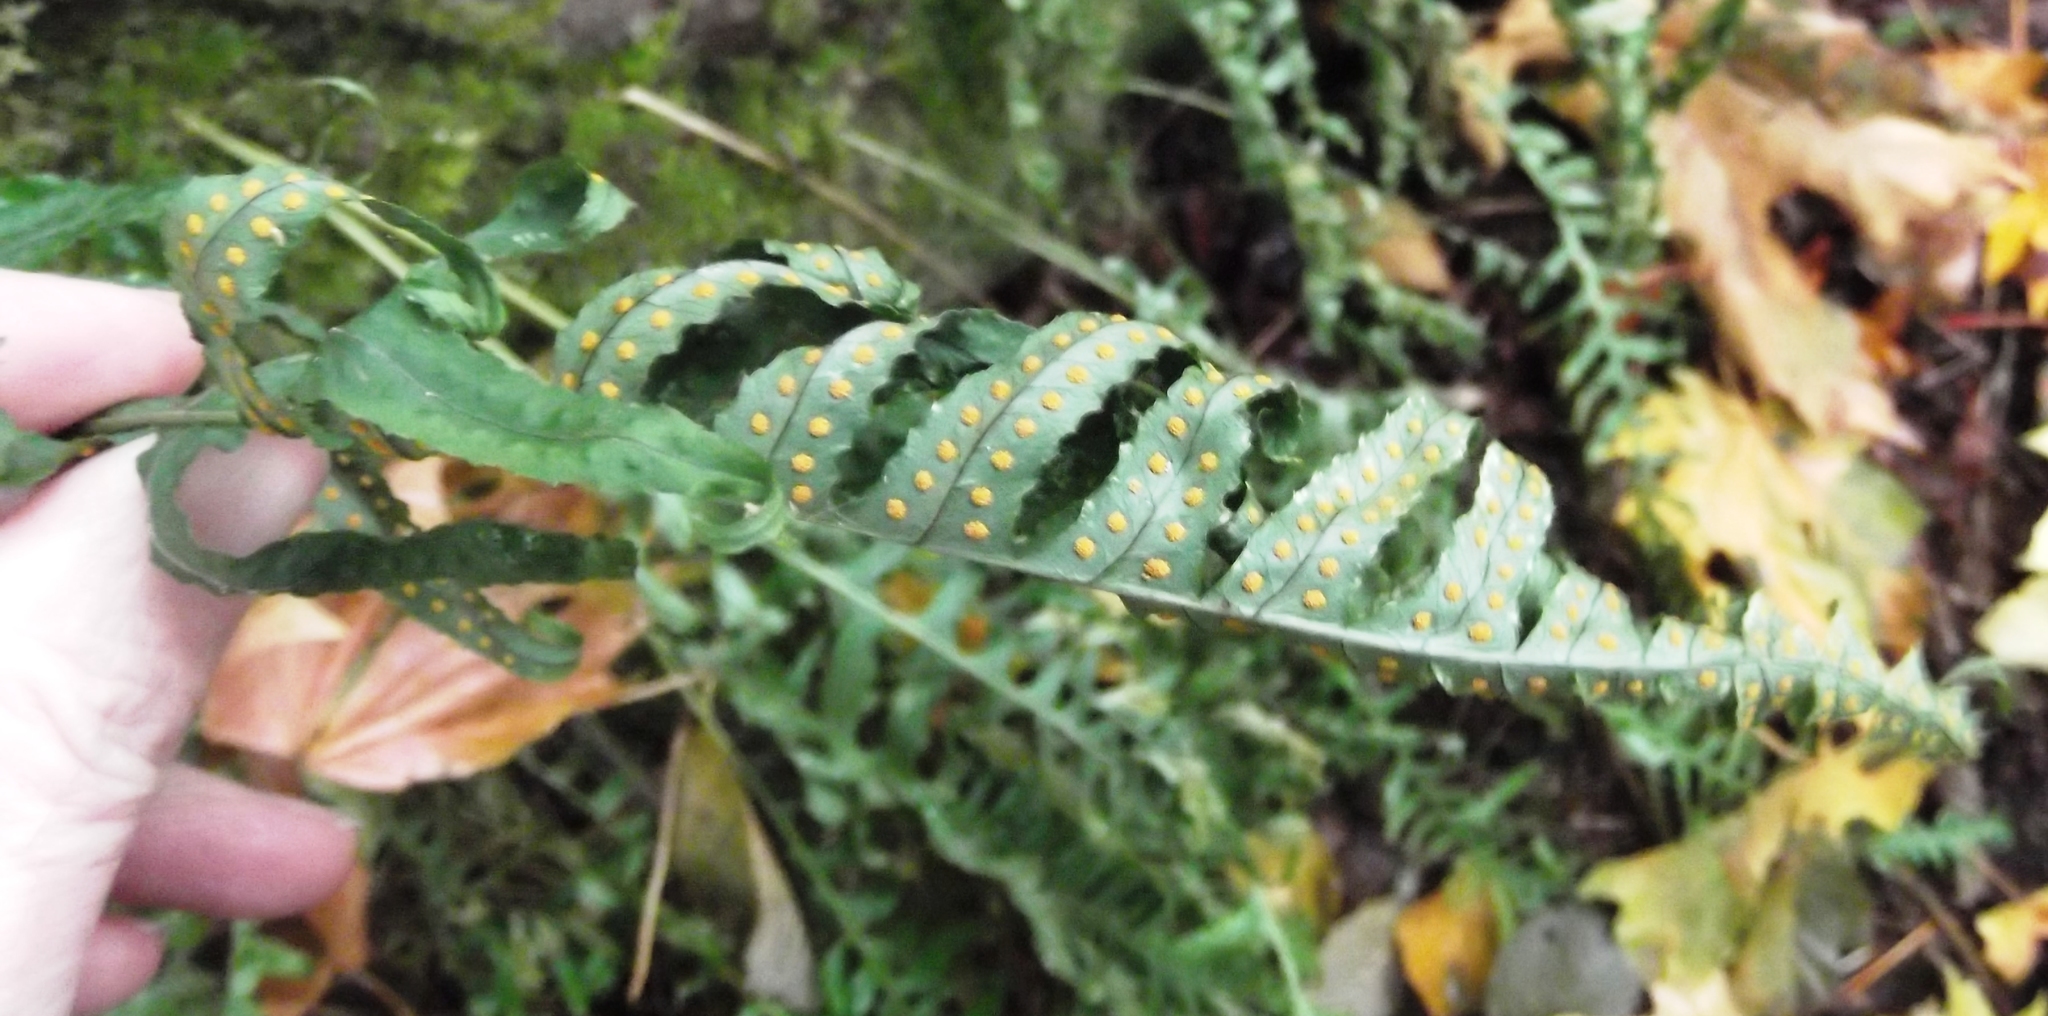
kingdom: Plantae
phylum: Tracheophyta
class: Polypodiopsida
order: Polypodiales
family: Polypodiaceae
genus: Polypodium
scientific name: Polypodium glycyrrhiza
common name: Licorice fern
